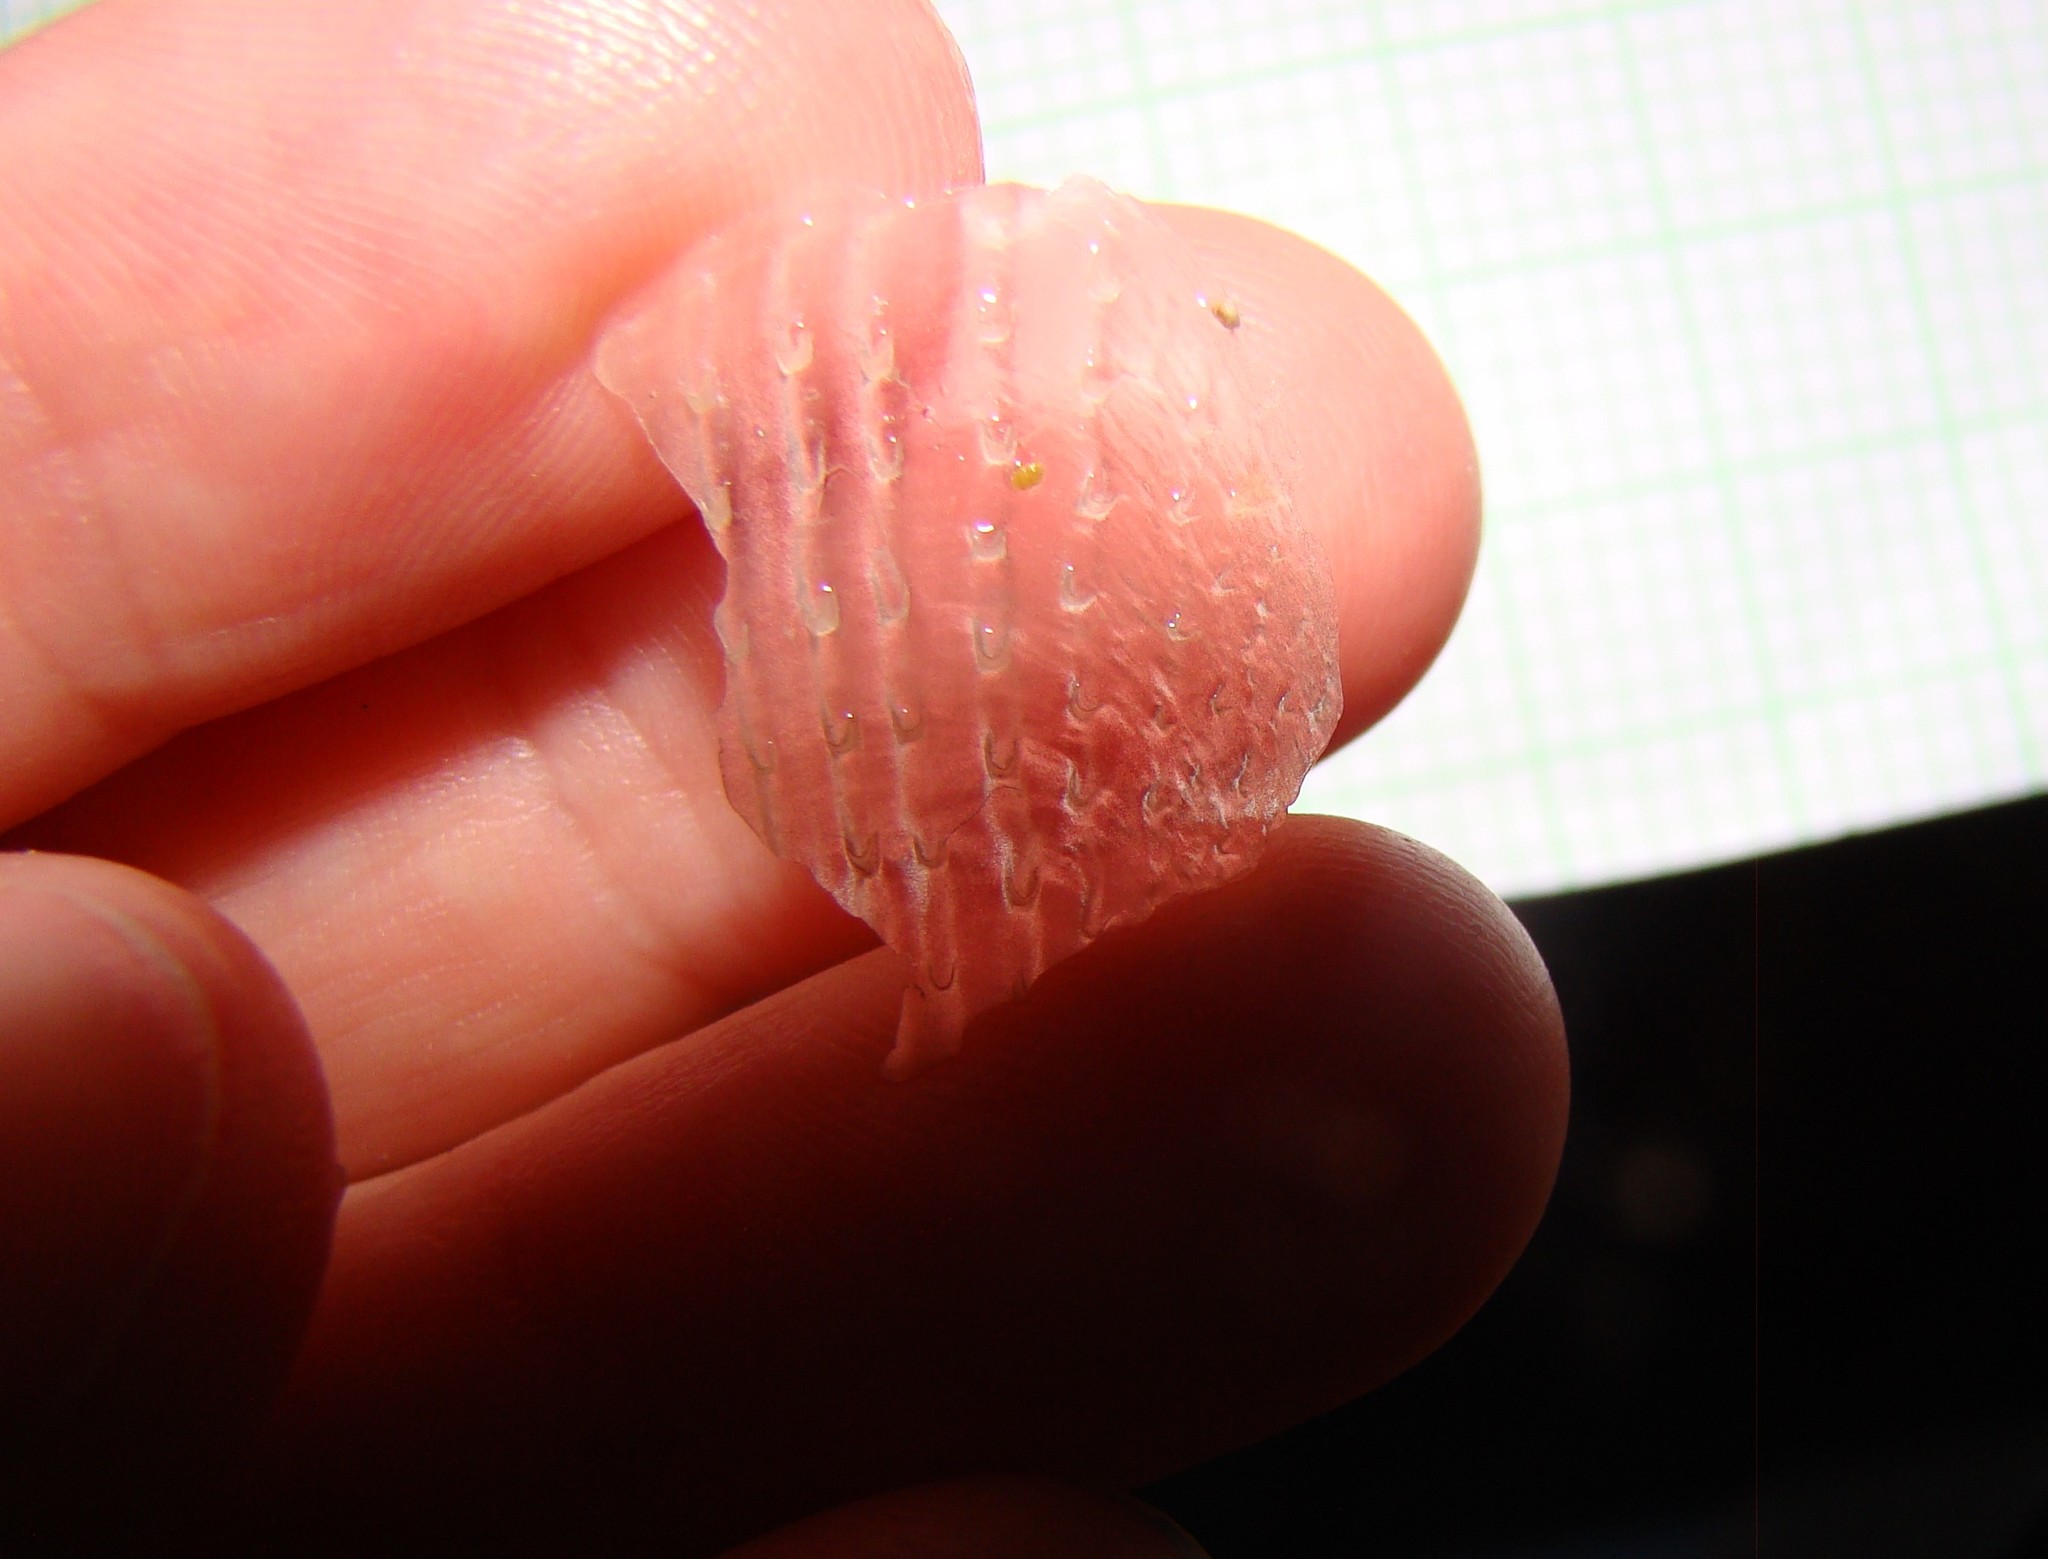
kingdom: Animalia
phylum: Mollusca
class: Bivalvia
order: Ostreida
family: Pinnidae
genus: Atrina
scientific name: Atrina zelandica
